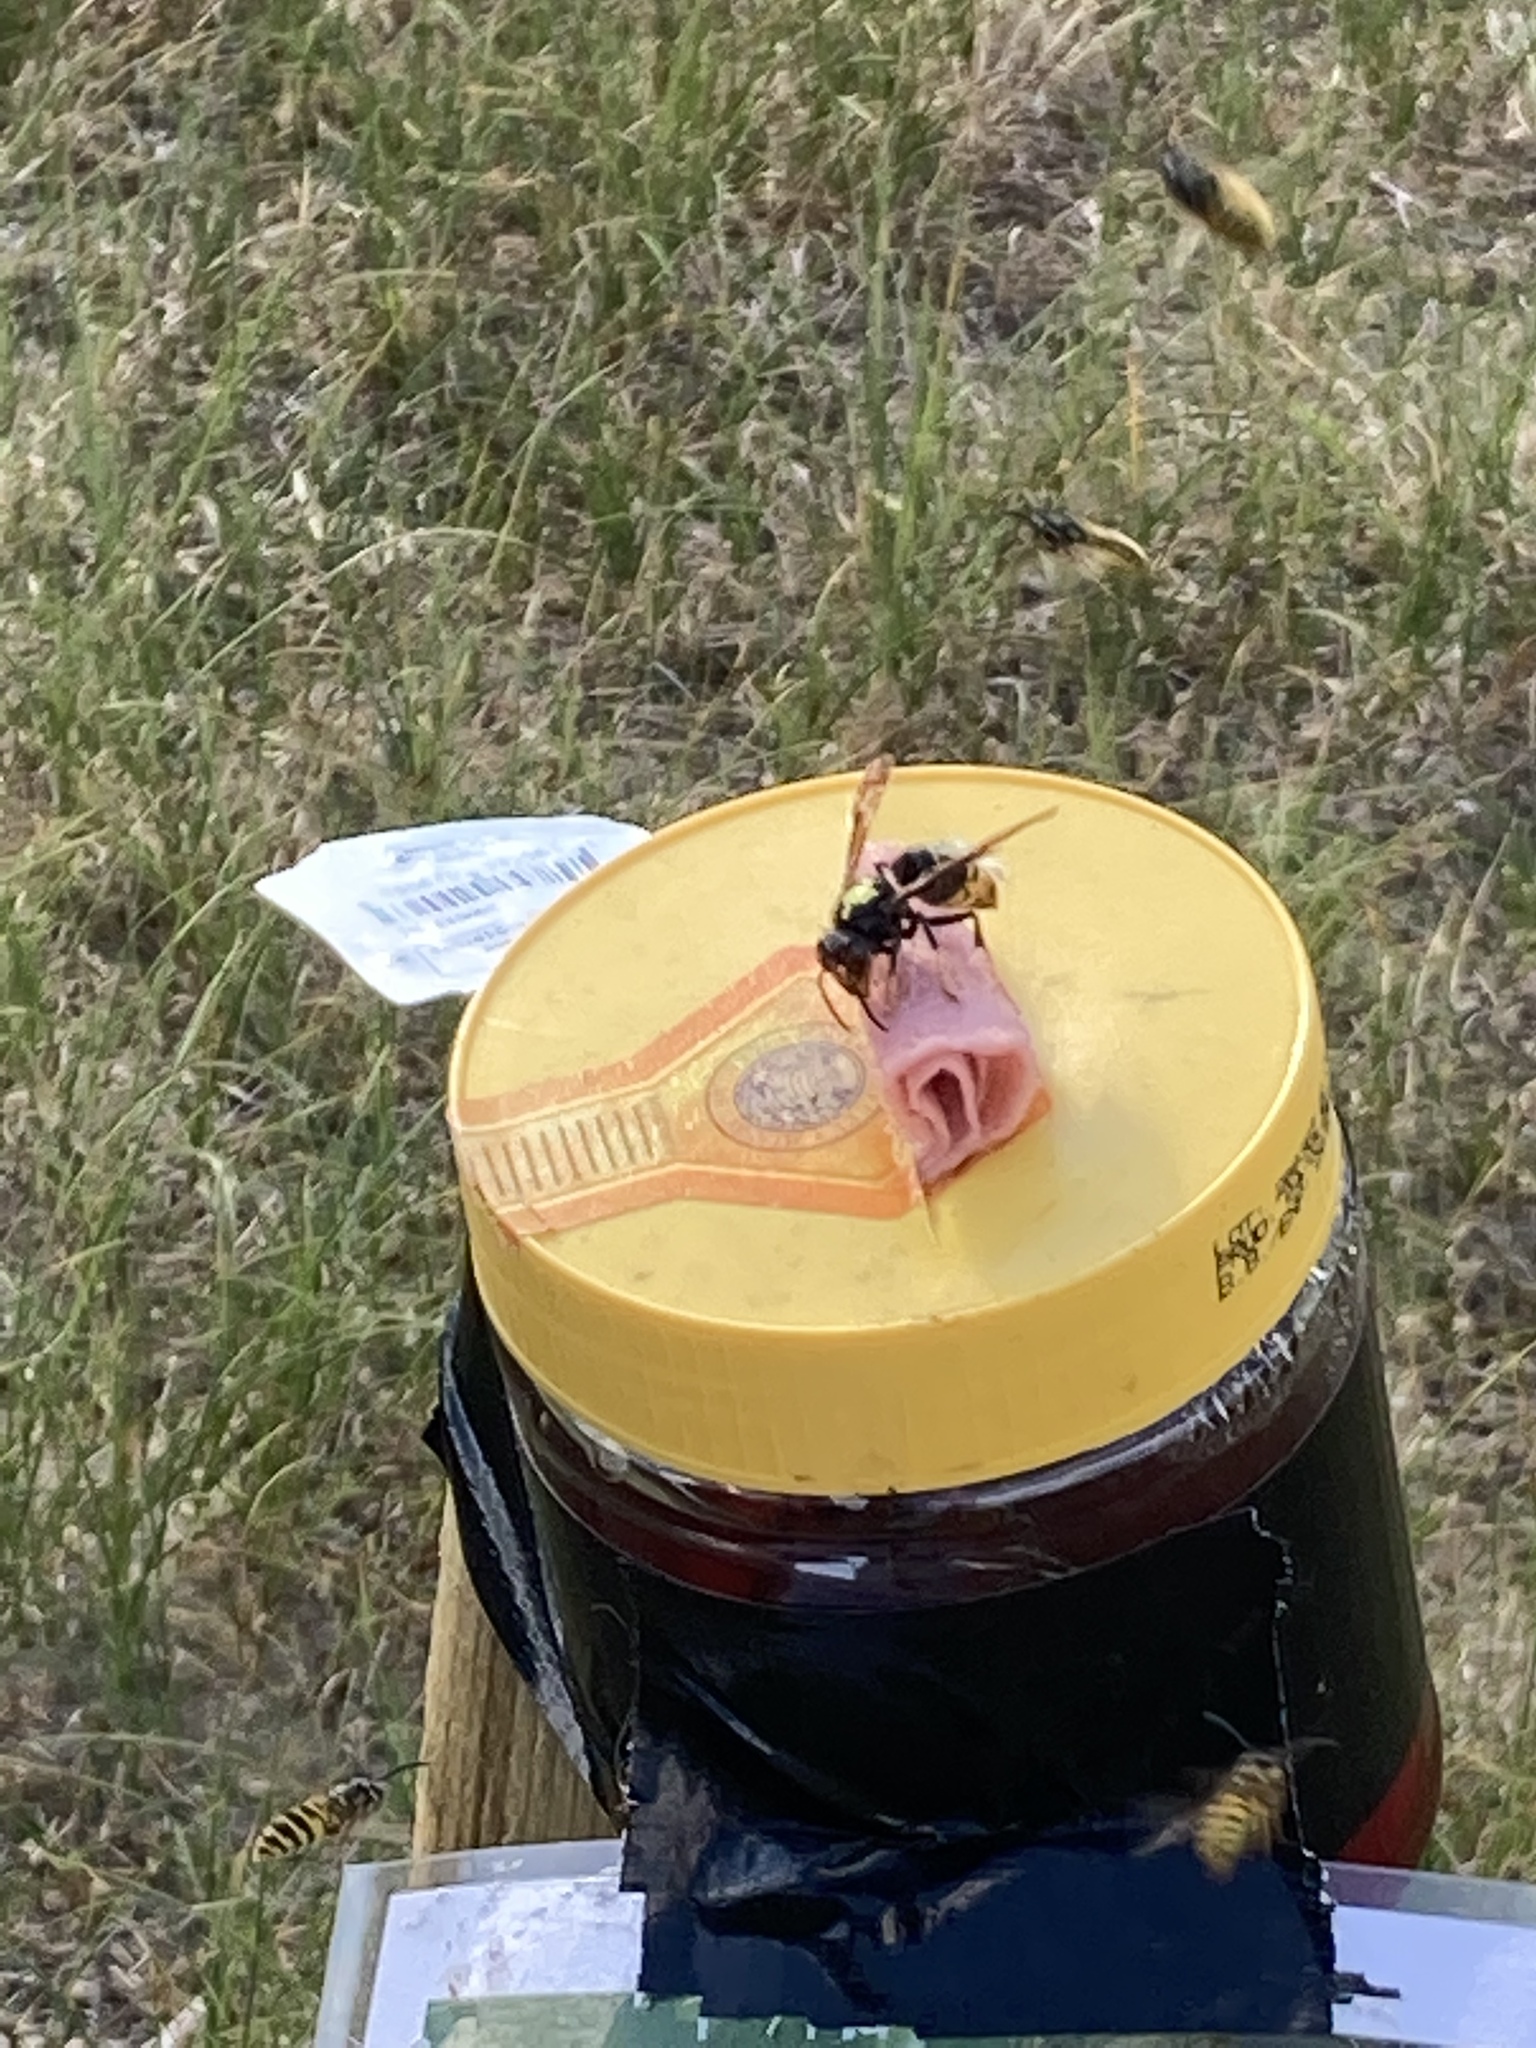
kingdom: Animalia
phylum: Arthropoda
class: Insecta
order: Hymenoptera
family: Vespidae
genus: Vespa
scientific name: Vespa velutina
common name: Asian hornet
